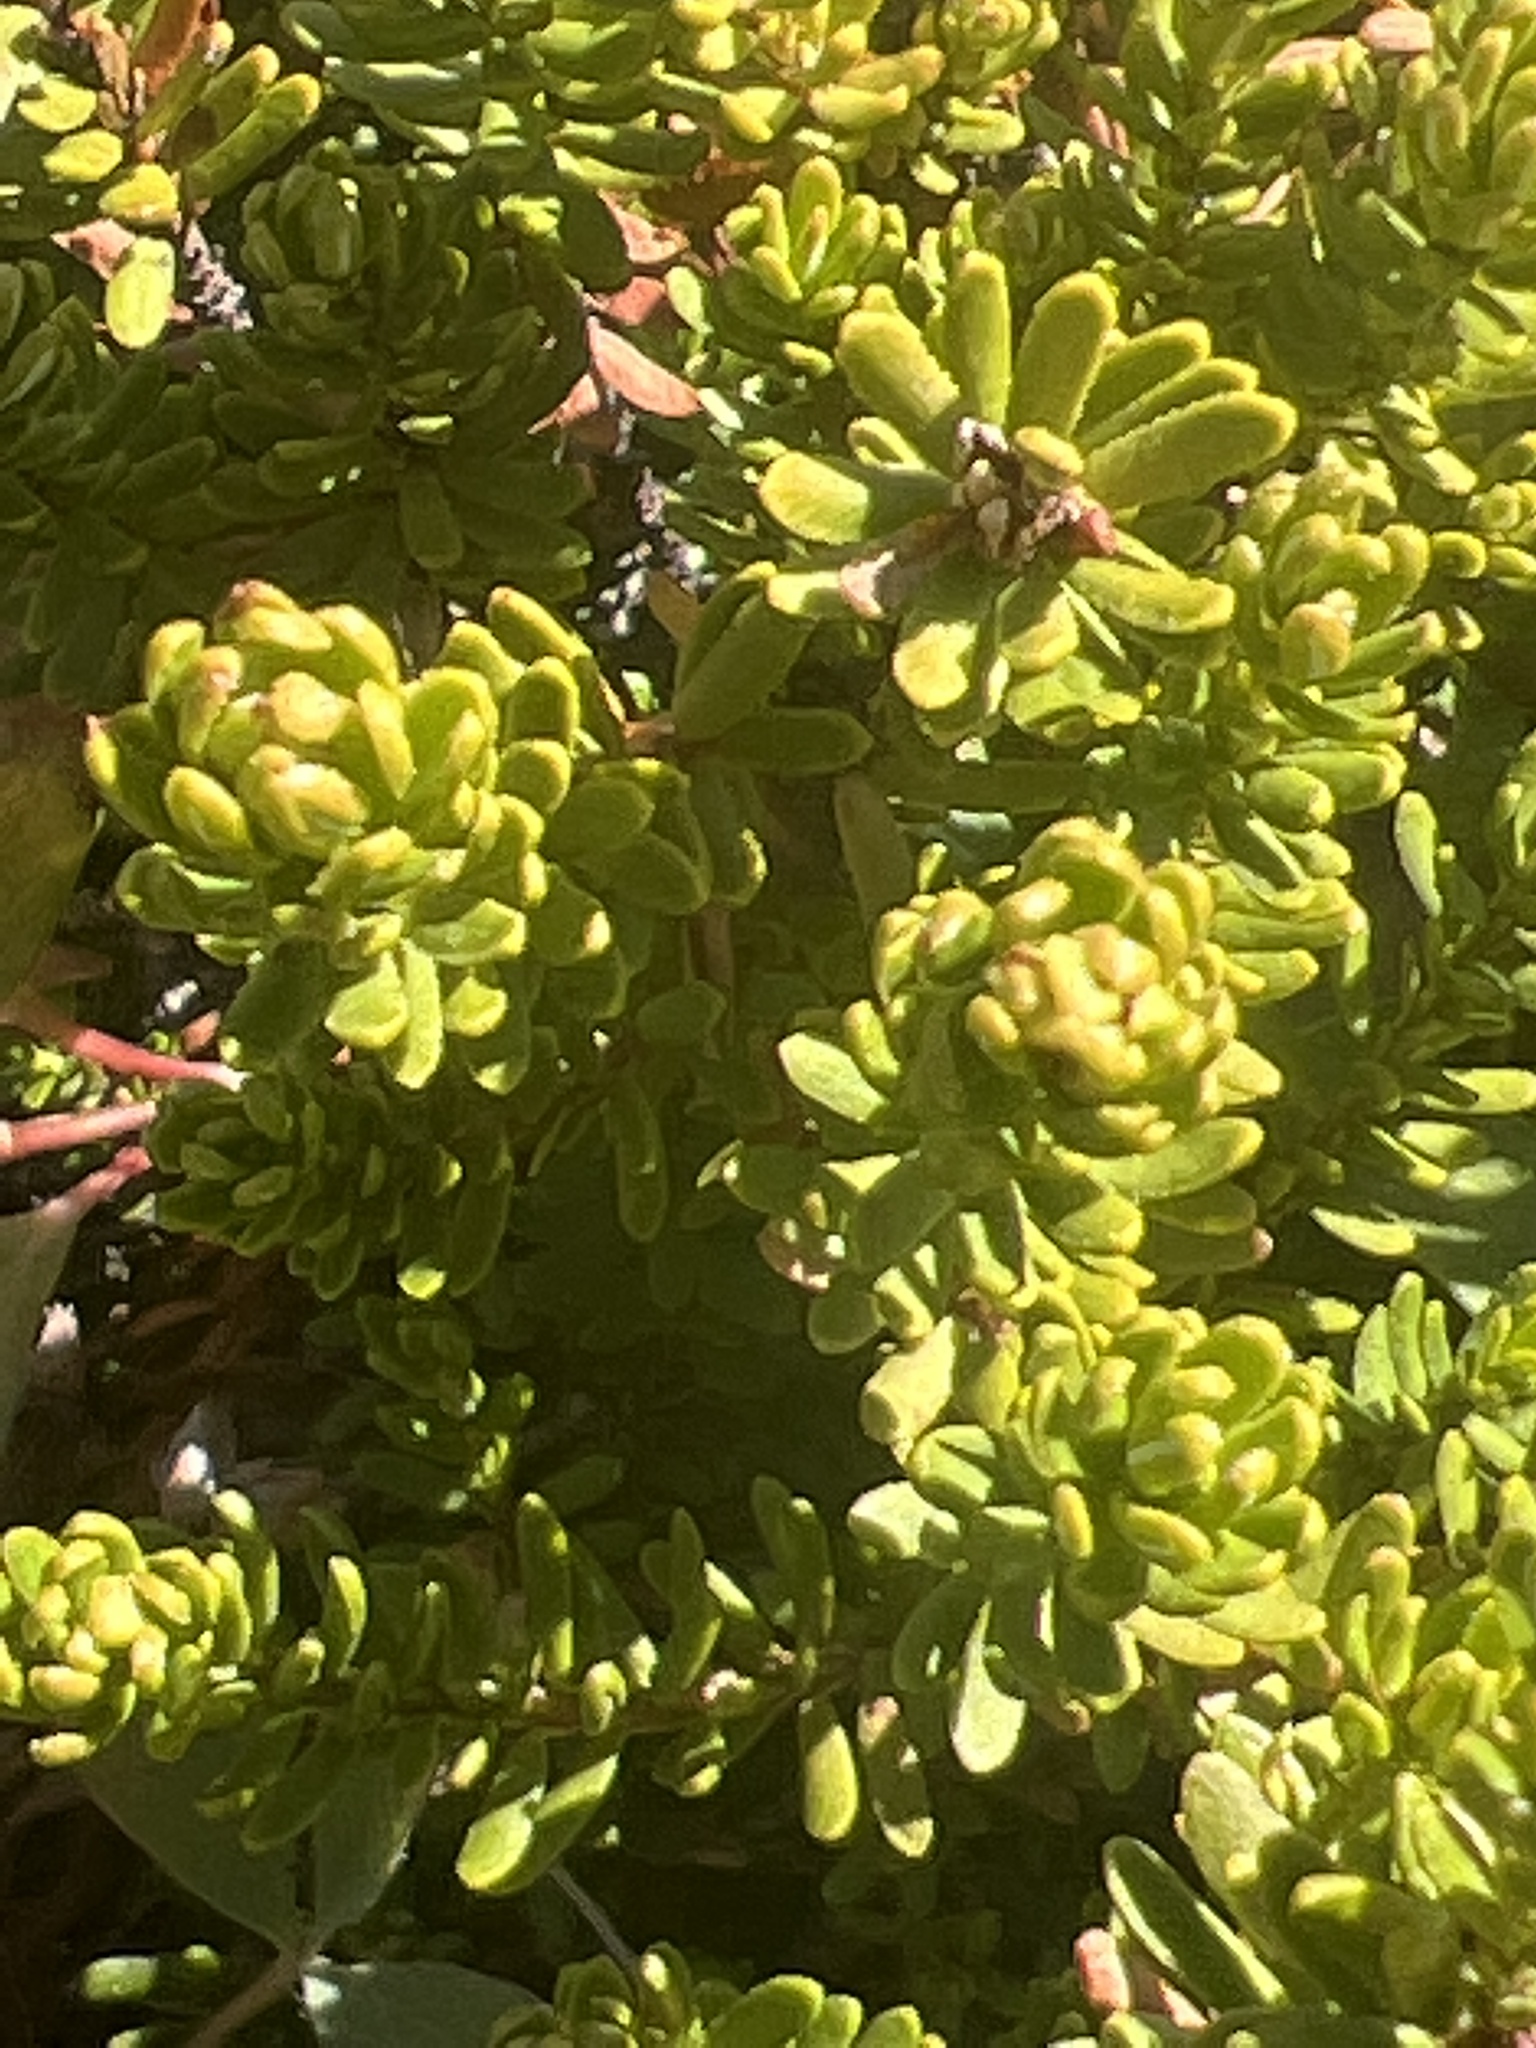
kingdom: Plantae
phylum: Tracheophyta
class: Magnoliopsida
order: Ericales
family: Ericaceae
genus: Phyllodoce
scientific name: Phyllodoce glanduliflora
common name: Cream mountain heather
